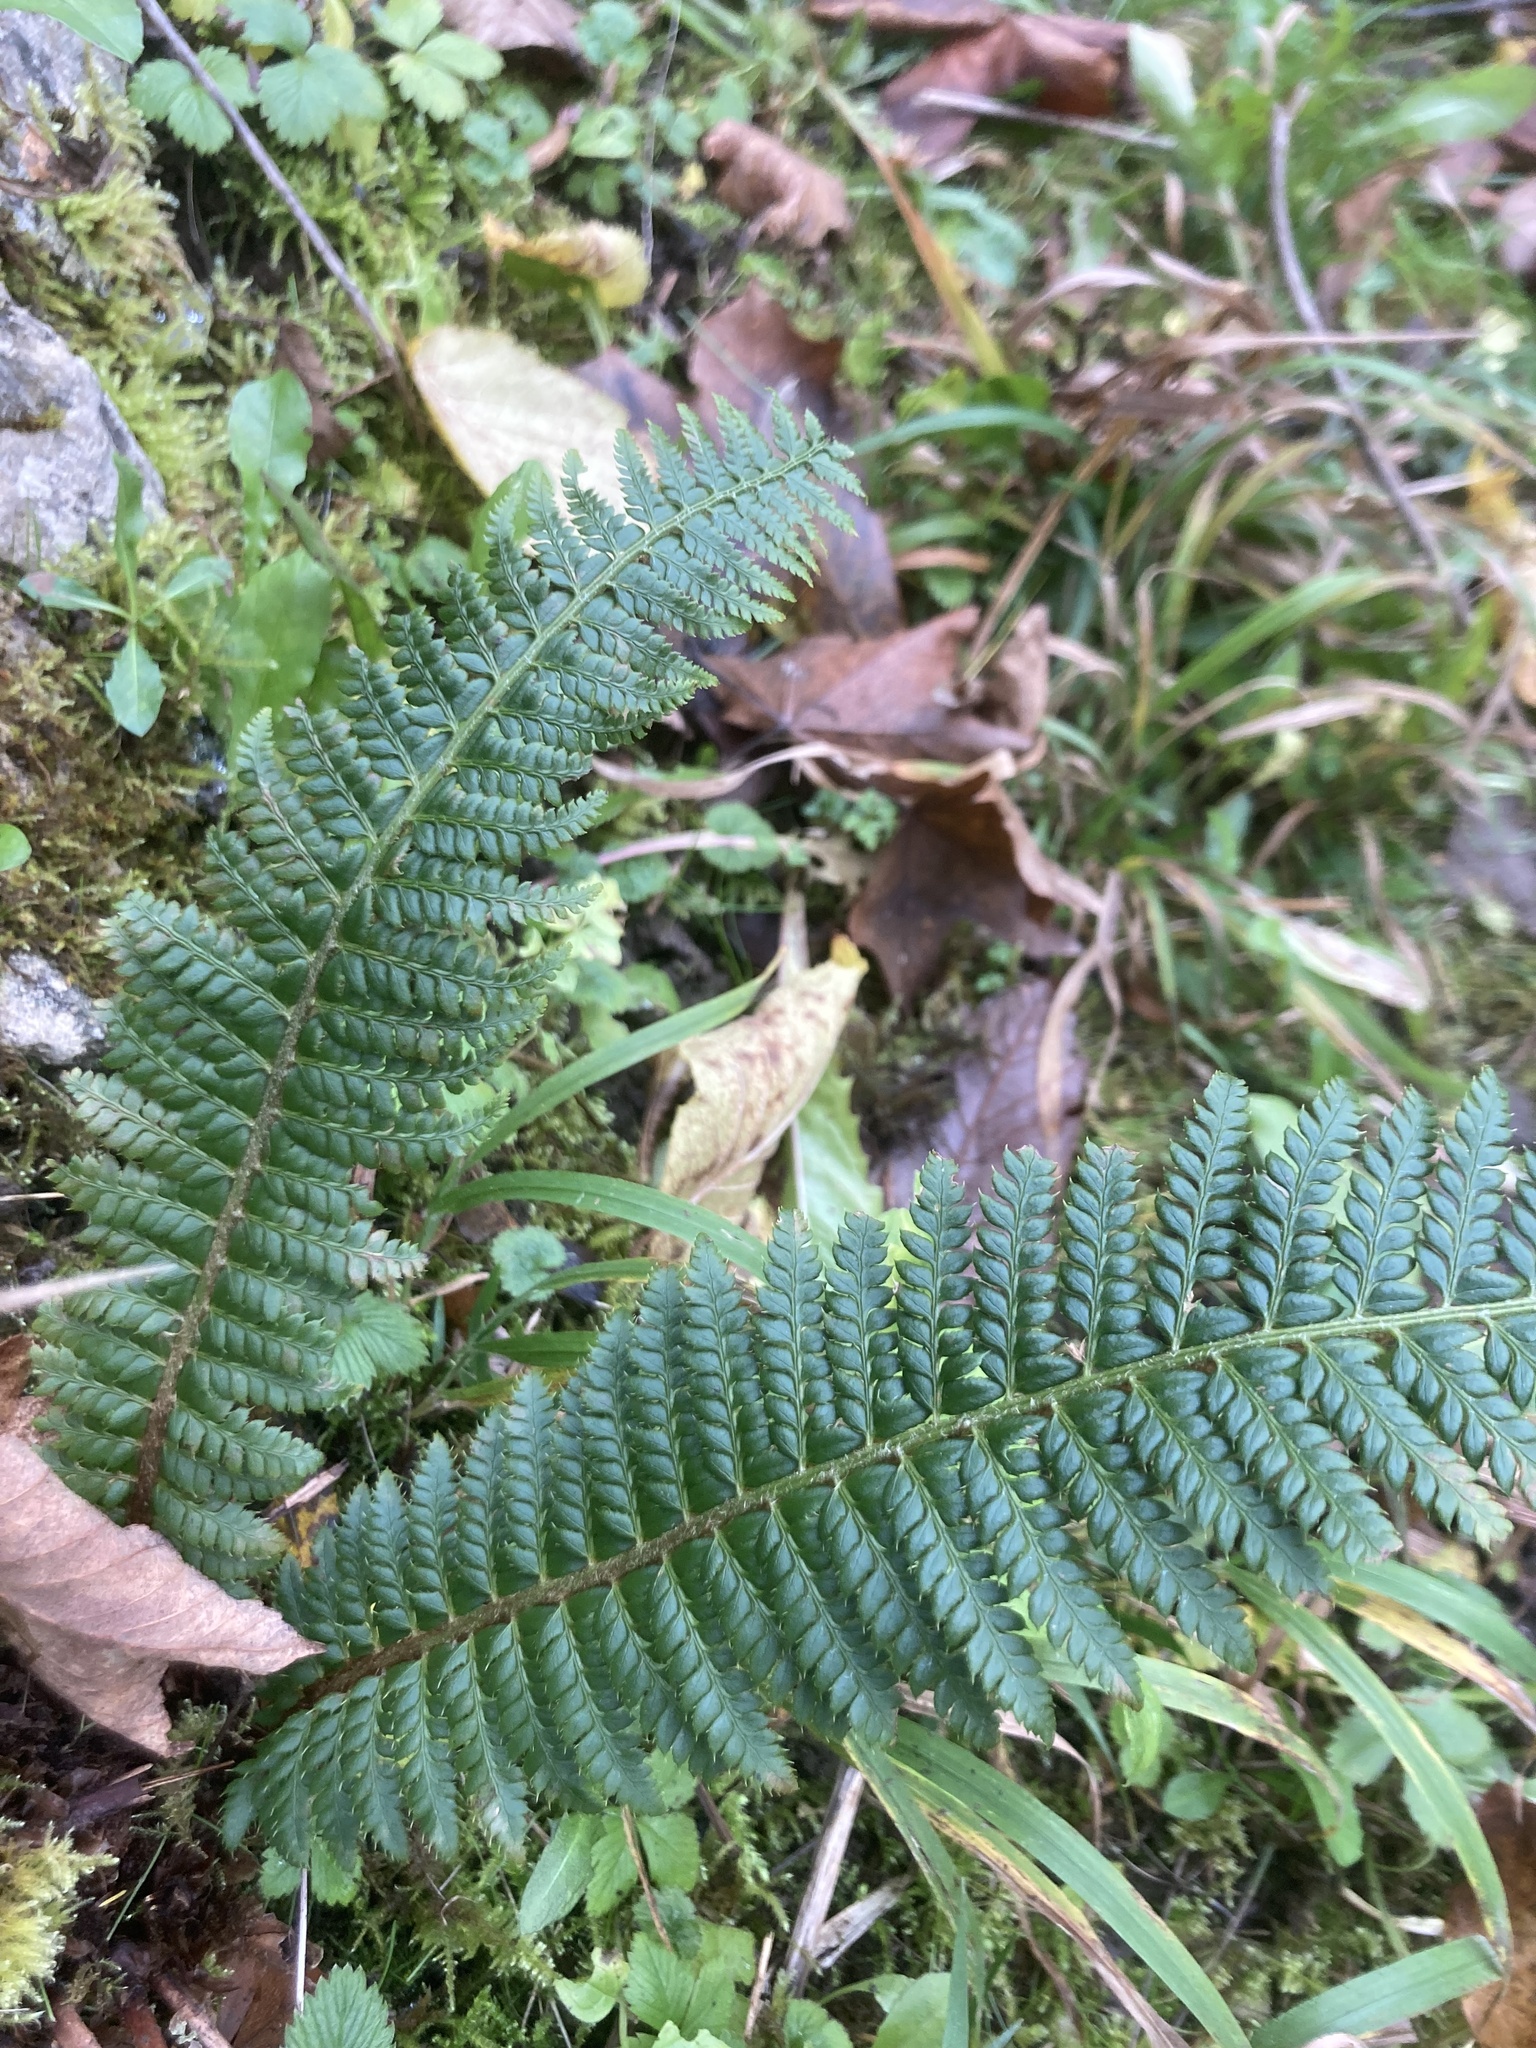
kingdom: Plantae
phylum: Tracheophyta
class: Polypodiopsida
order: Polypodiales
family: Dryopteridaceae
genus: Polystichum
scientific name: Polystichum aculeatum
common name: Hard shield-fern
